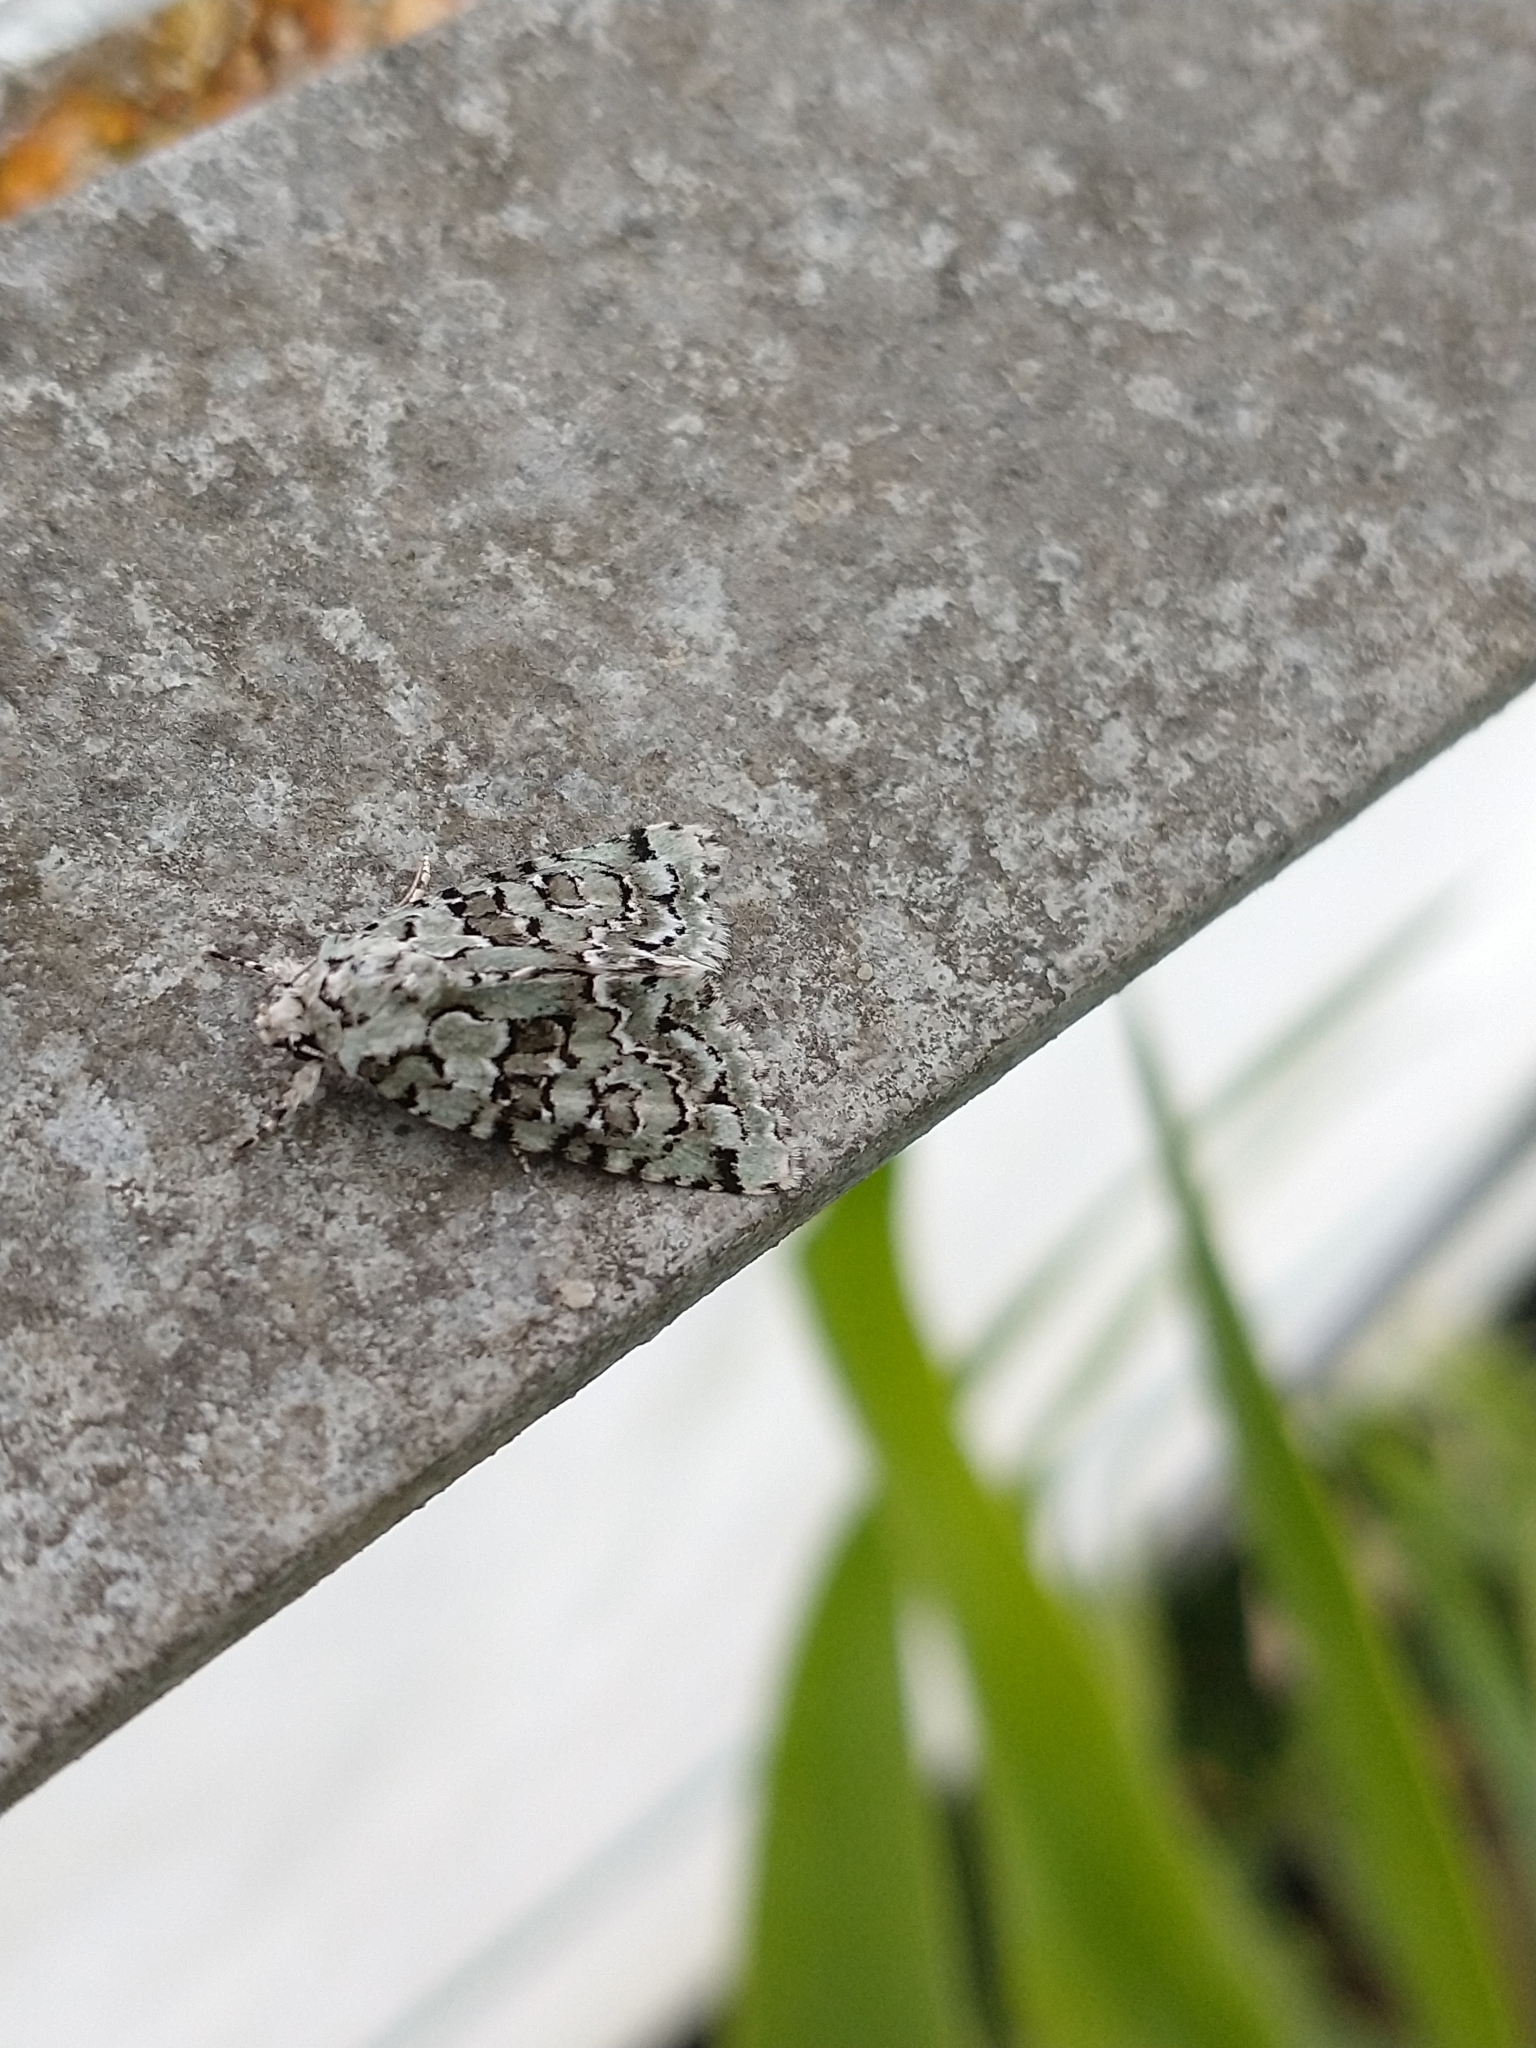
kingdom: Animalia
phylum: Arthropoda
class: Insecta
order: Lepidoptera
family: Noctuidae
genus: Nyctobrya
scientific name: Nyctobrya muralis
